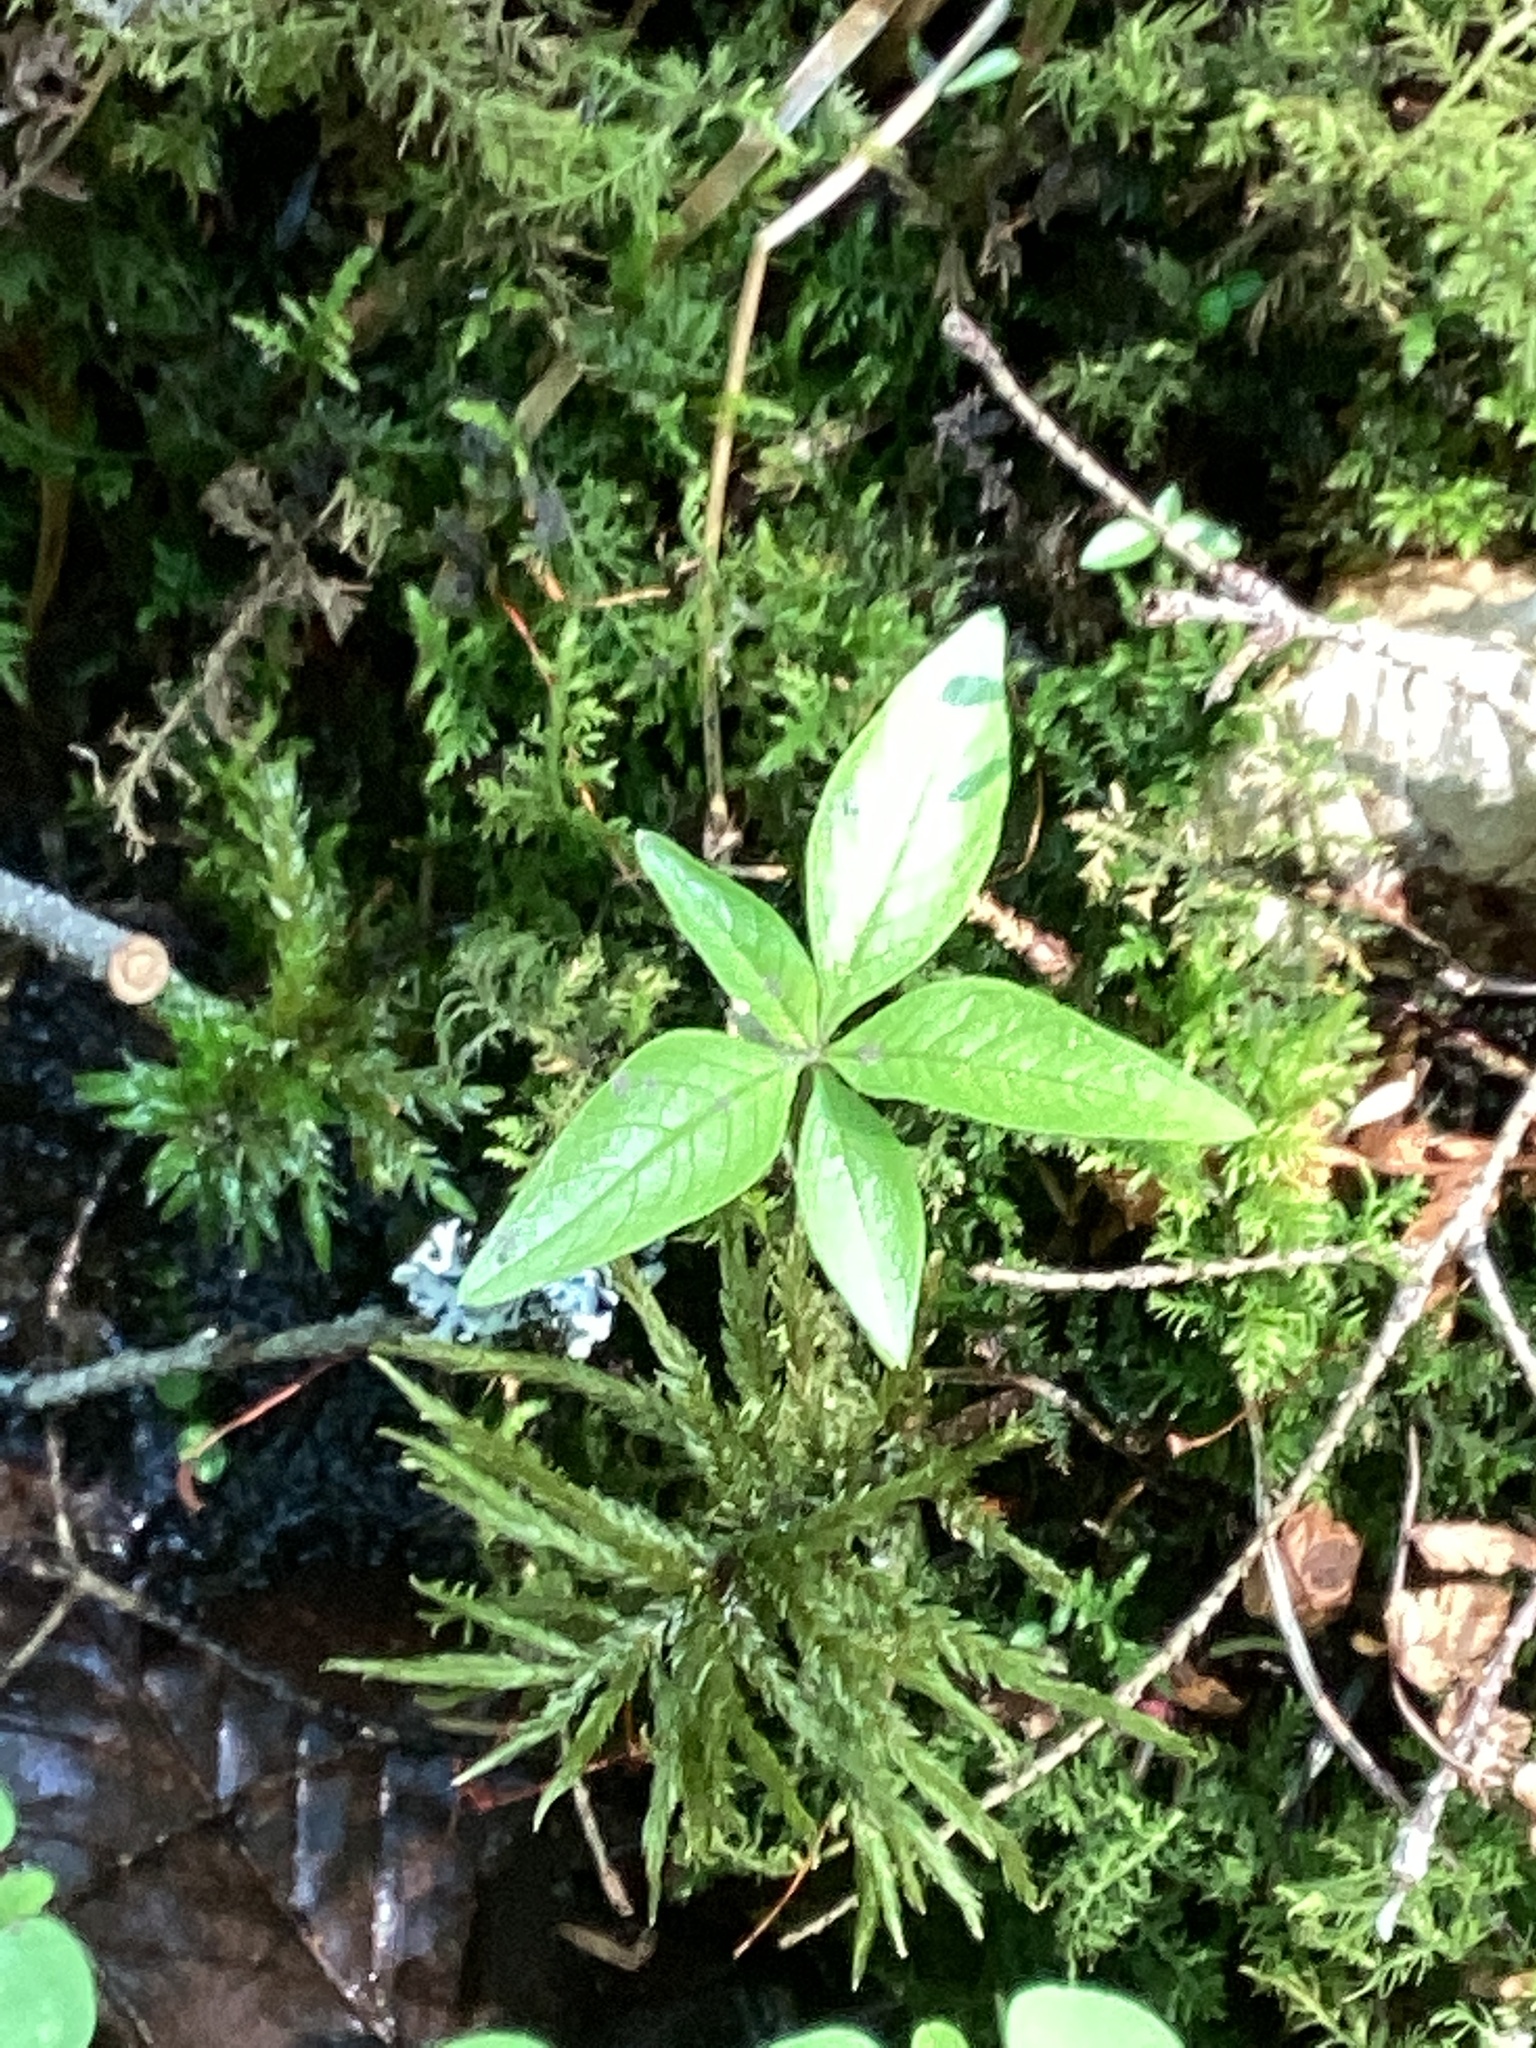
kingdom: Plantae
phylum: Tracheophyta
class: Magnoliopsida
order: Ericales
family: Primulaceae
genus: Lysimachia
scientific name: Lysimachia borealis
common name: American starflower
